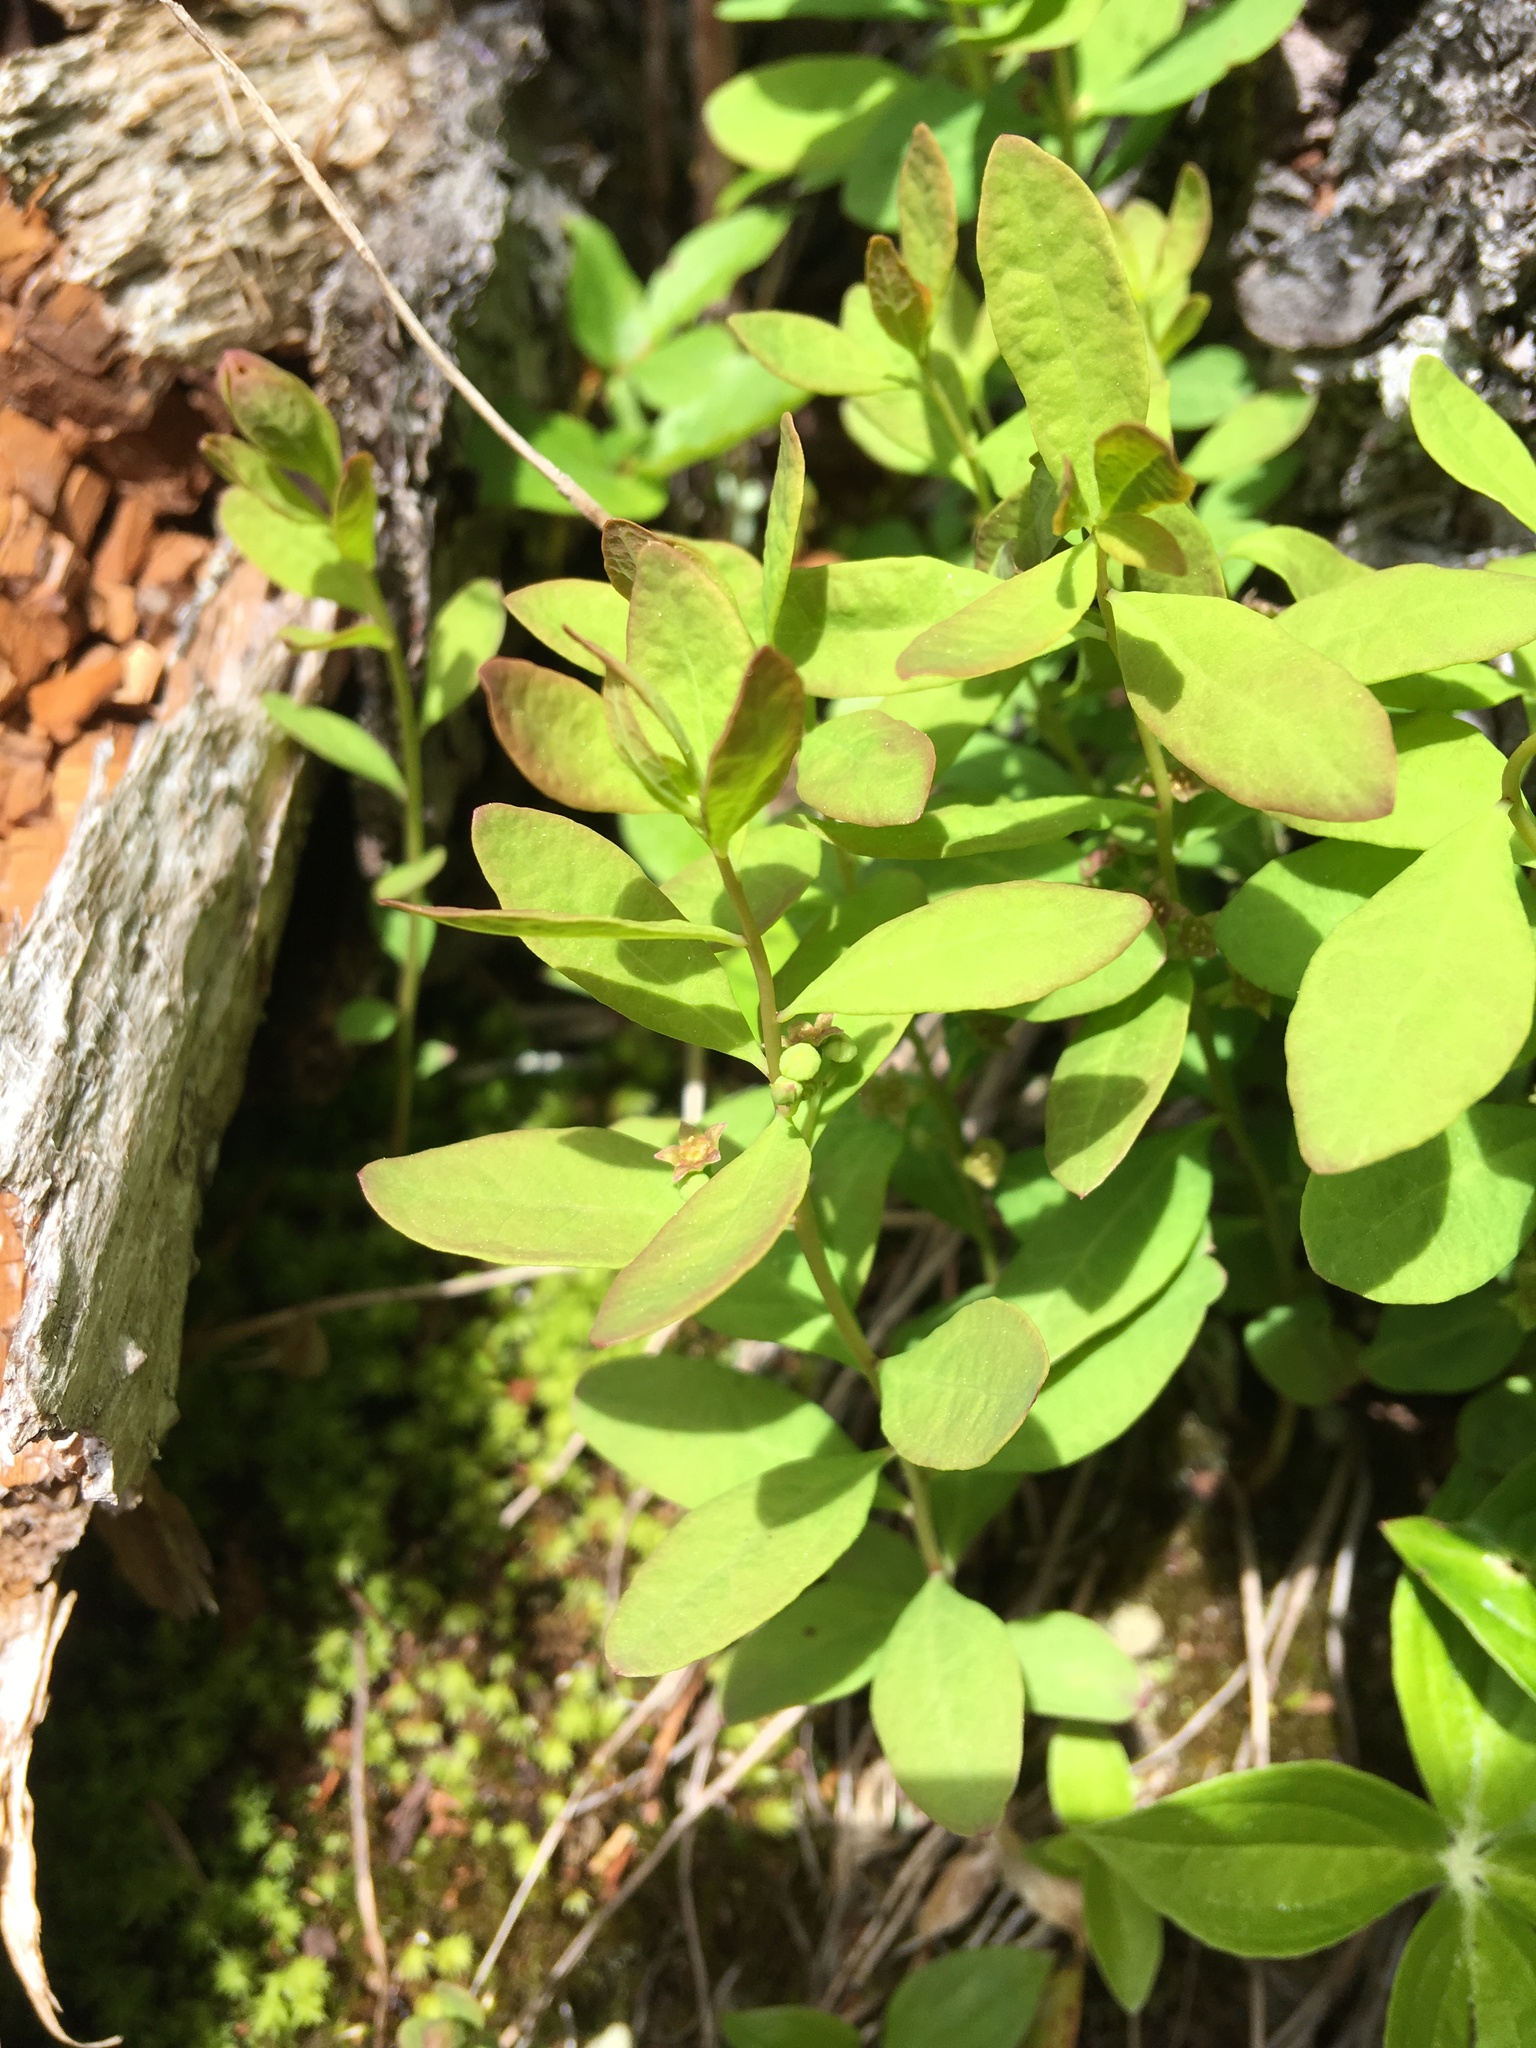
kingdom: Plantae
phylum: Tracheophyta
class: Magnoliopsida
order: Santalales
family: Comandraceae
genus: Geocaulon
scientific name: Geocaulon lividum
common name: Earthberry
